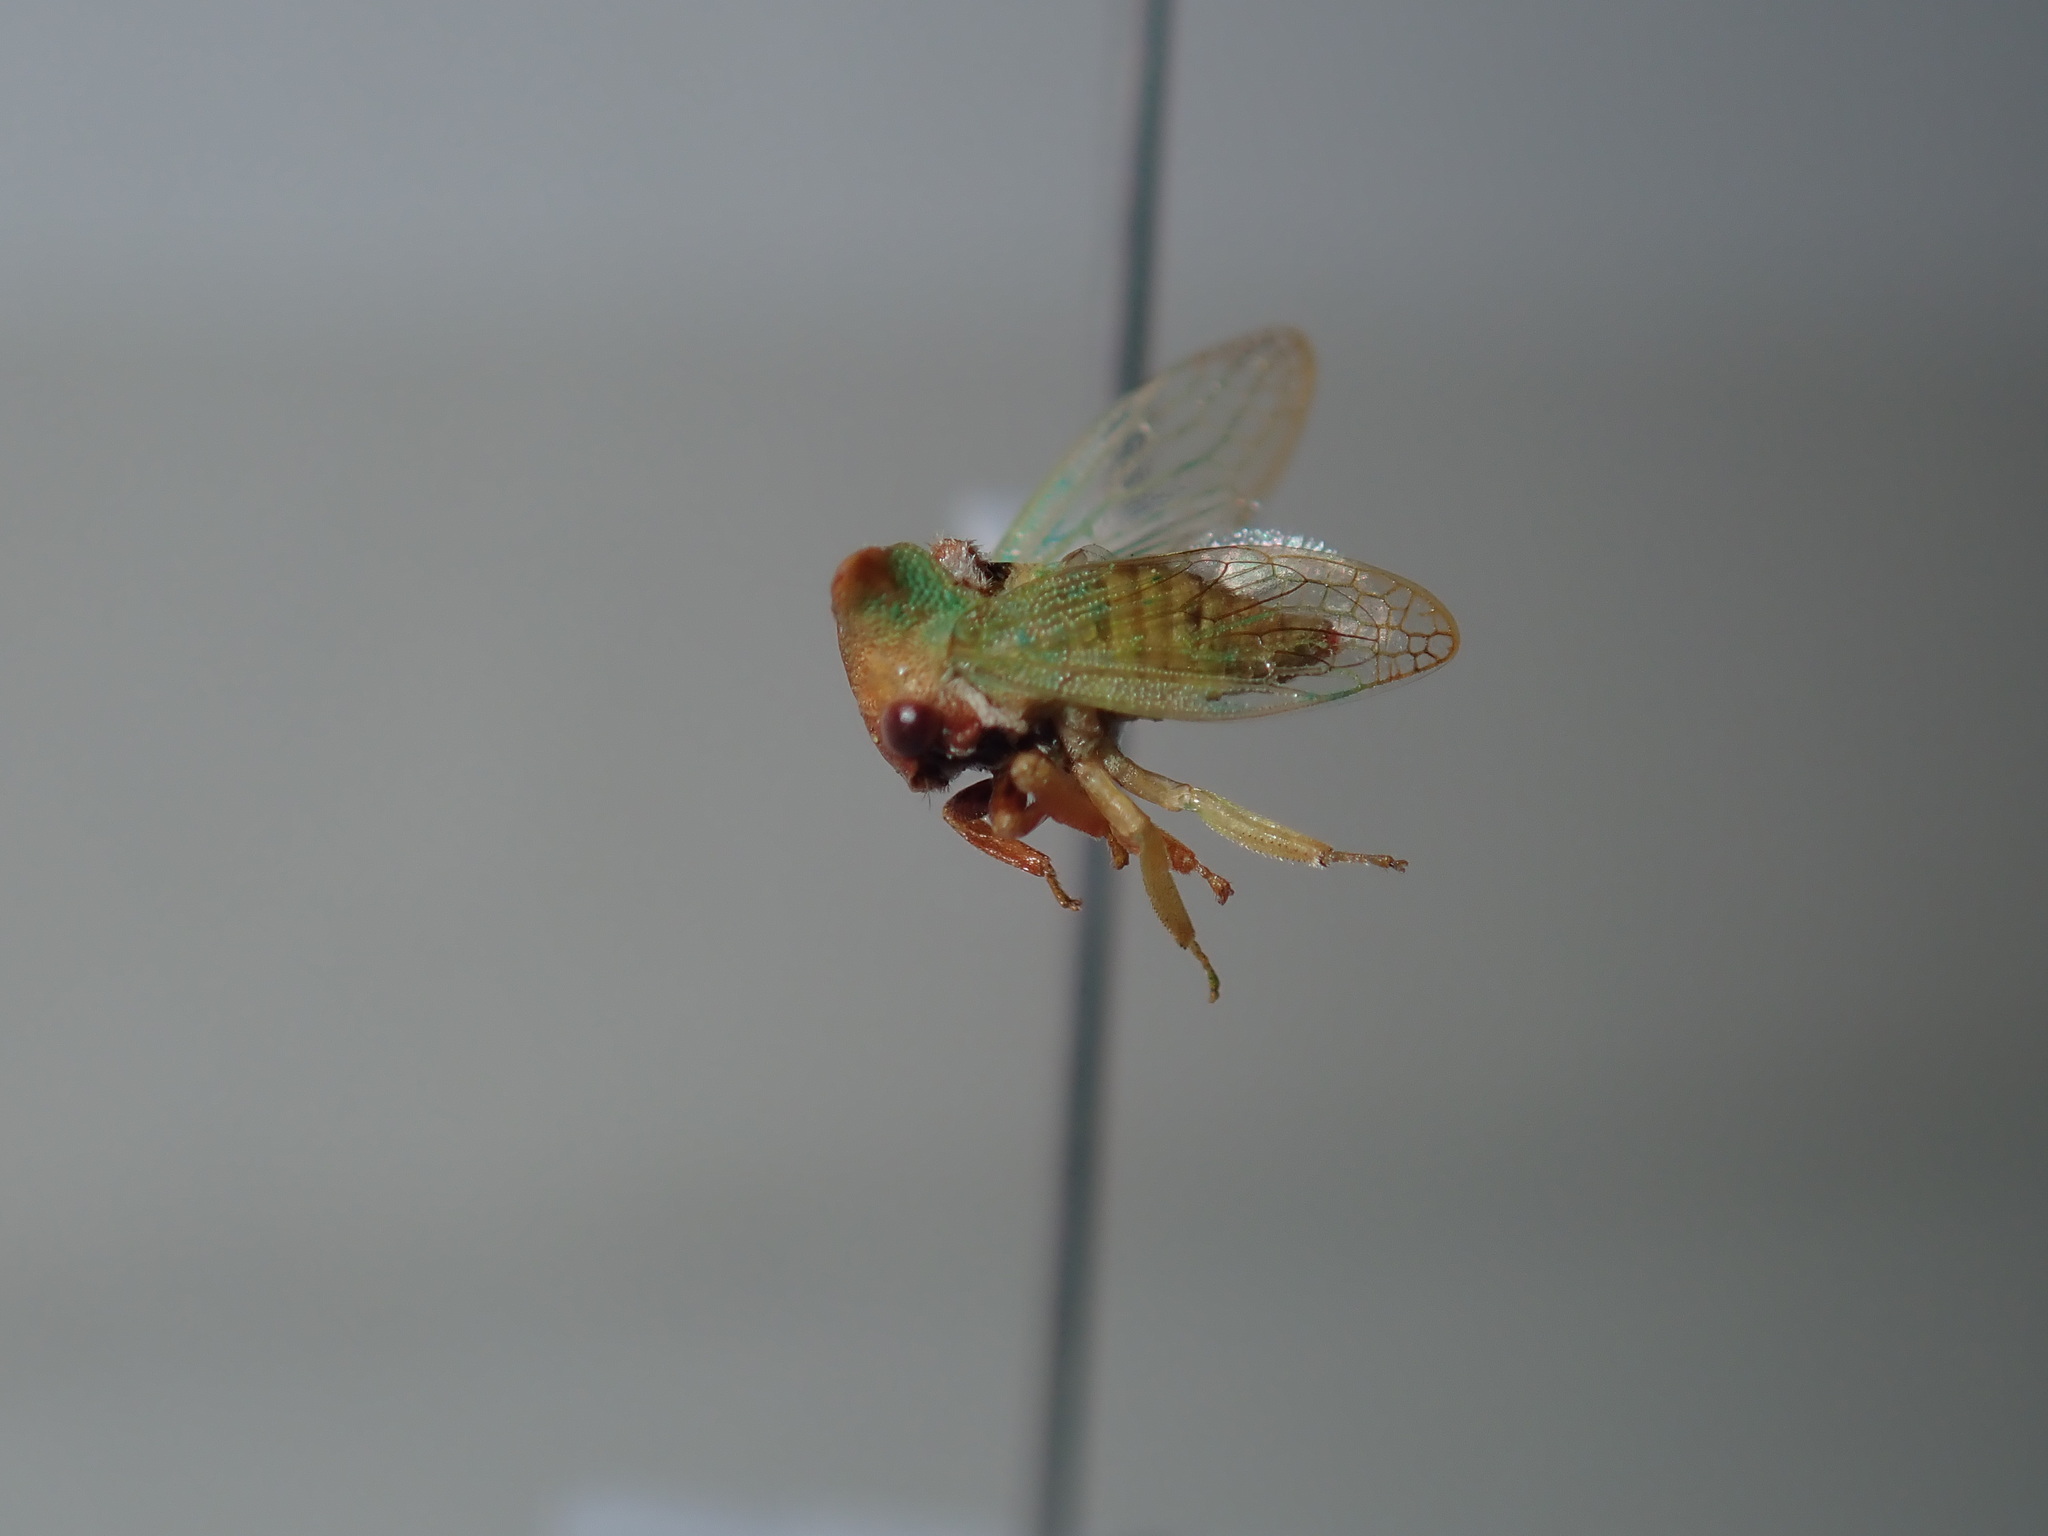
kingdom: Animalia
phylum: Arthropoda
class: Insecta
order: Hemiptera
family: Membracidae
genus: Sextius
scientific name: Sextius virescens
